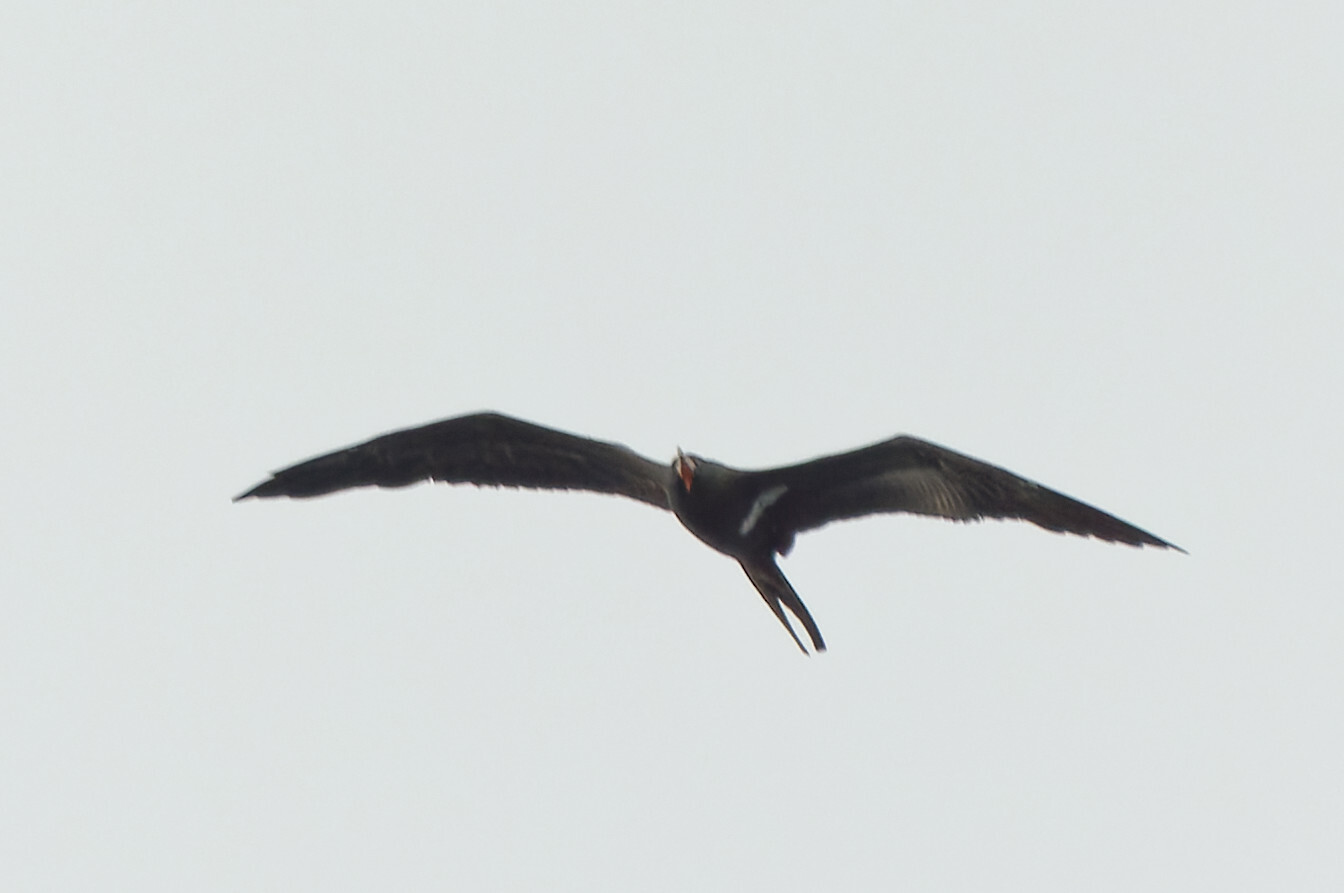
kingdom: Animalia
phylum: Chordata
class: Aves
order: Suliformes
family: Fregatidae
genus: Fregata
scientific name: Fregata ariel
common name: Lesser frigatebird
